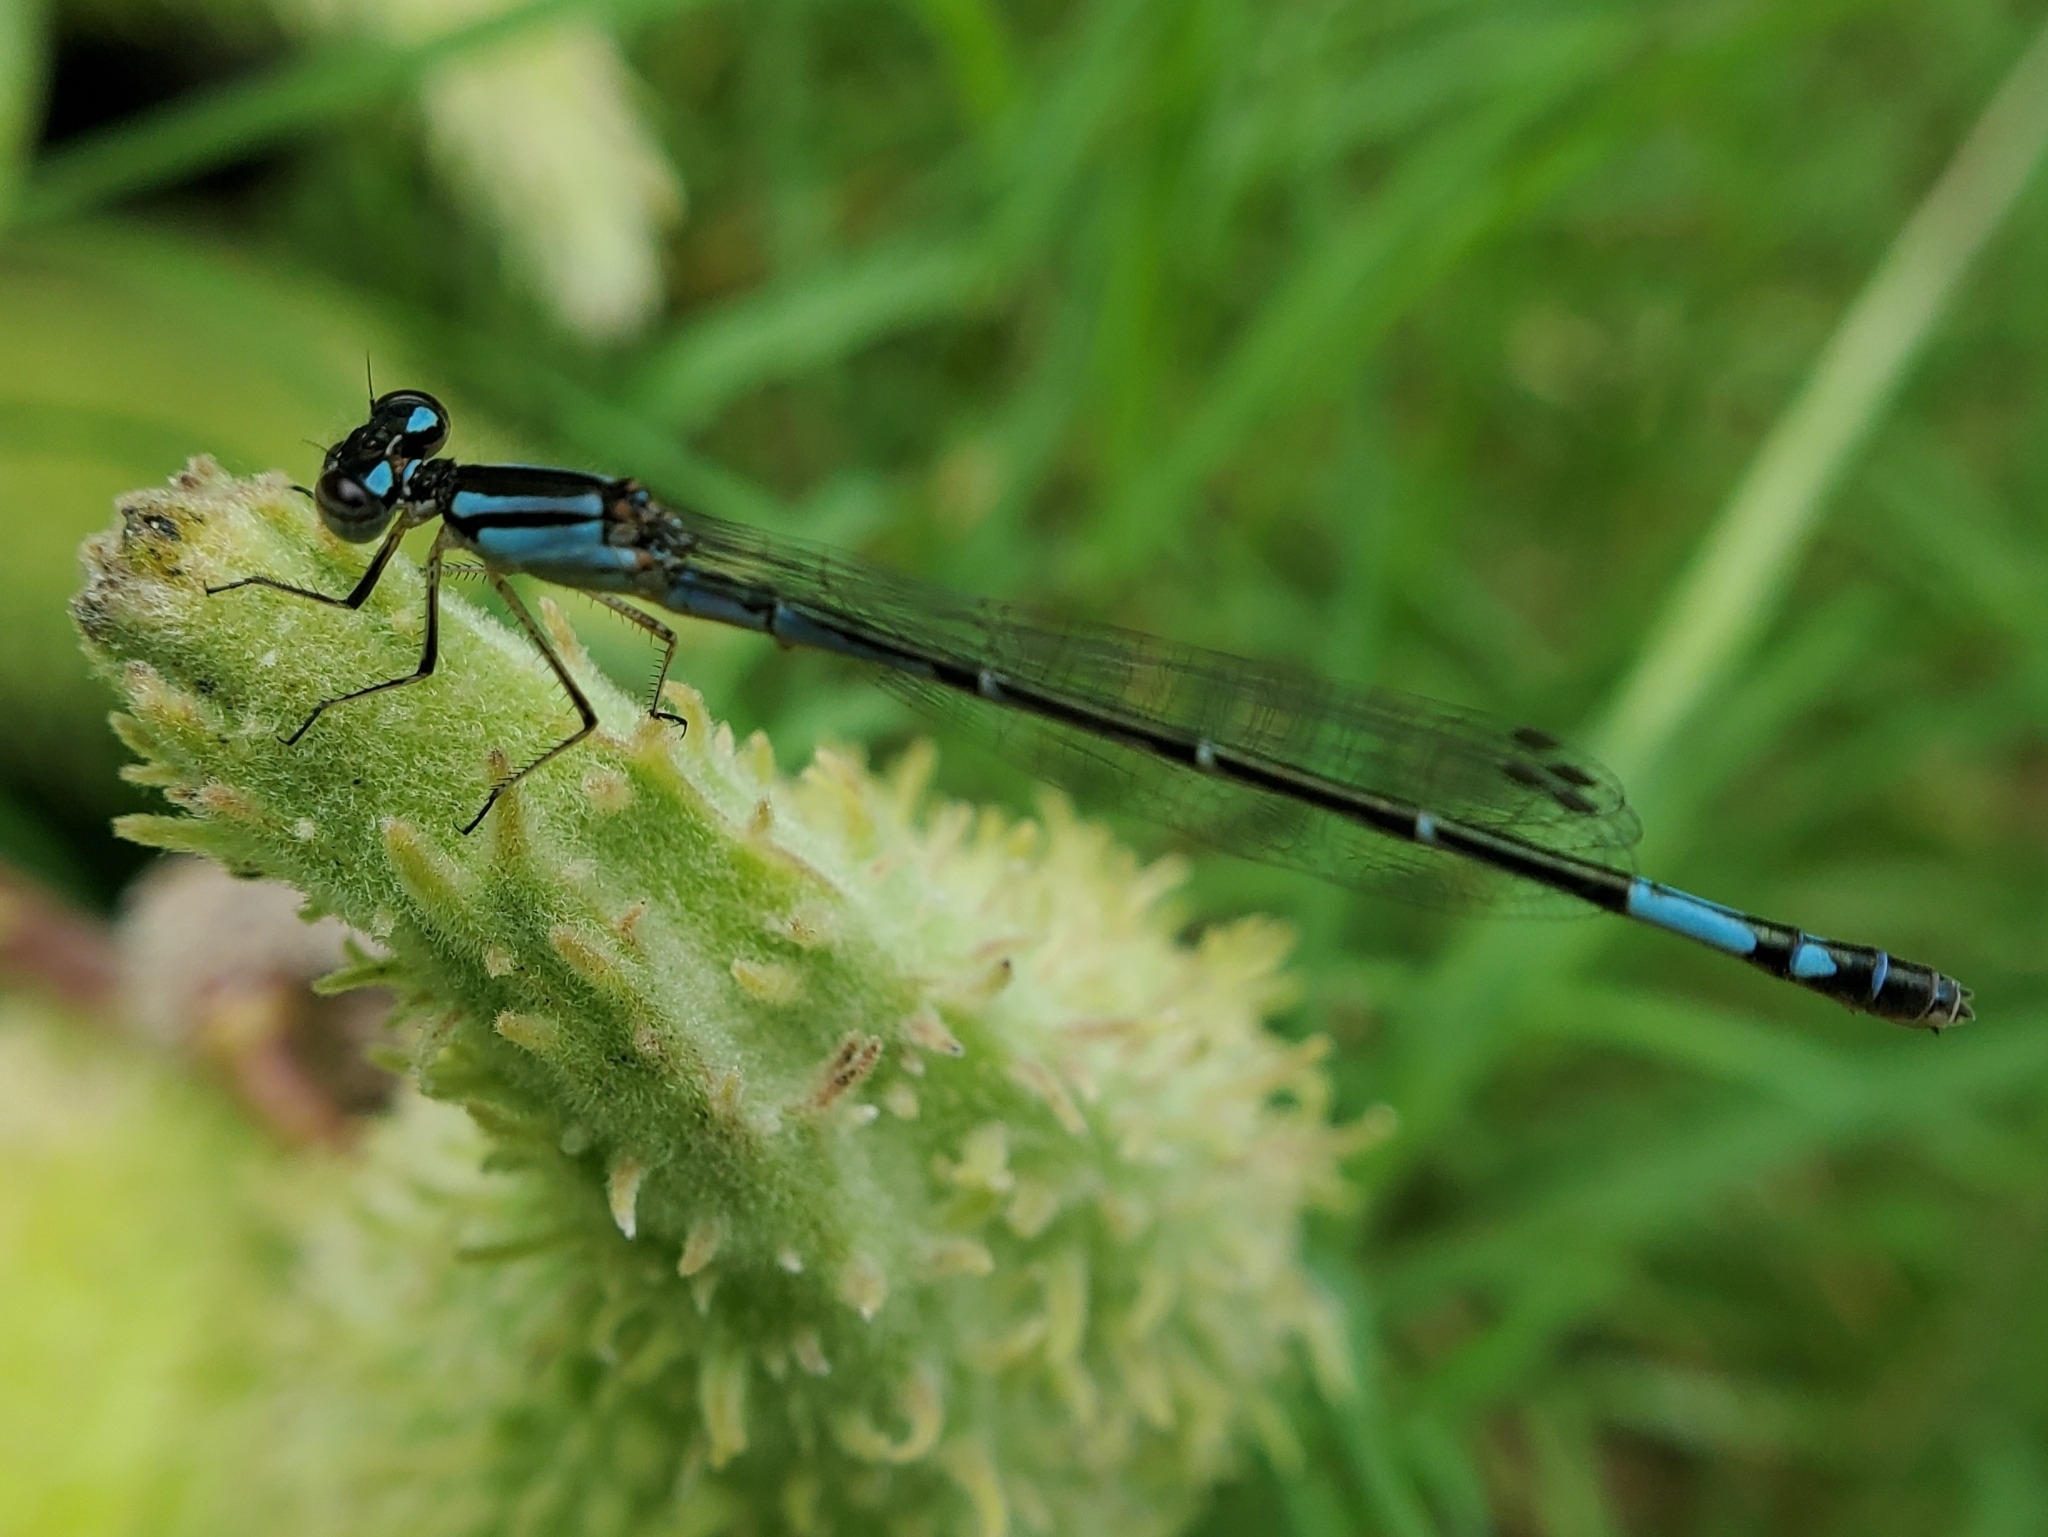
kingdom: Animalia
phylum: Arthropoda
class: Insecta
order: Odonata
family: Coenagrionidae
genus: Enallagma
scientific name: Enallagma aspersum
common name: Azure bluet
